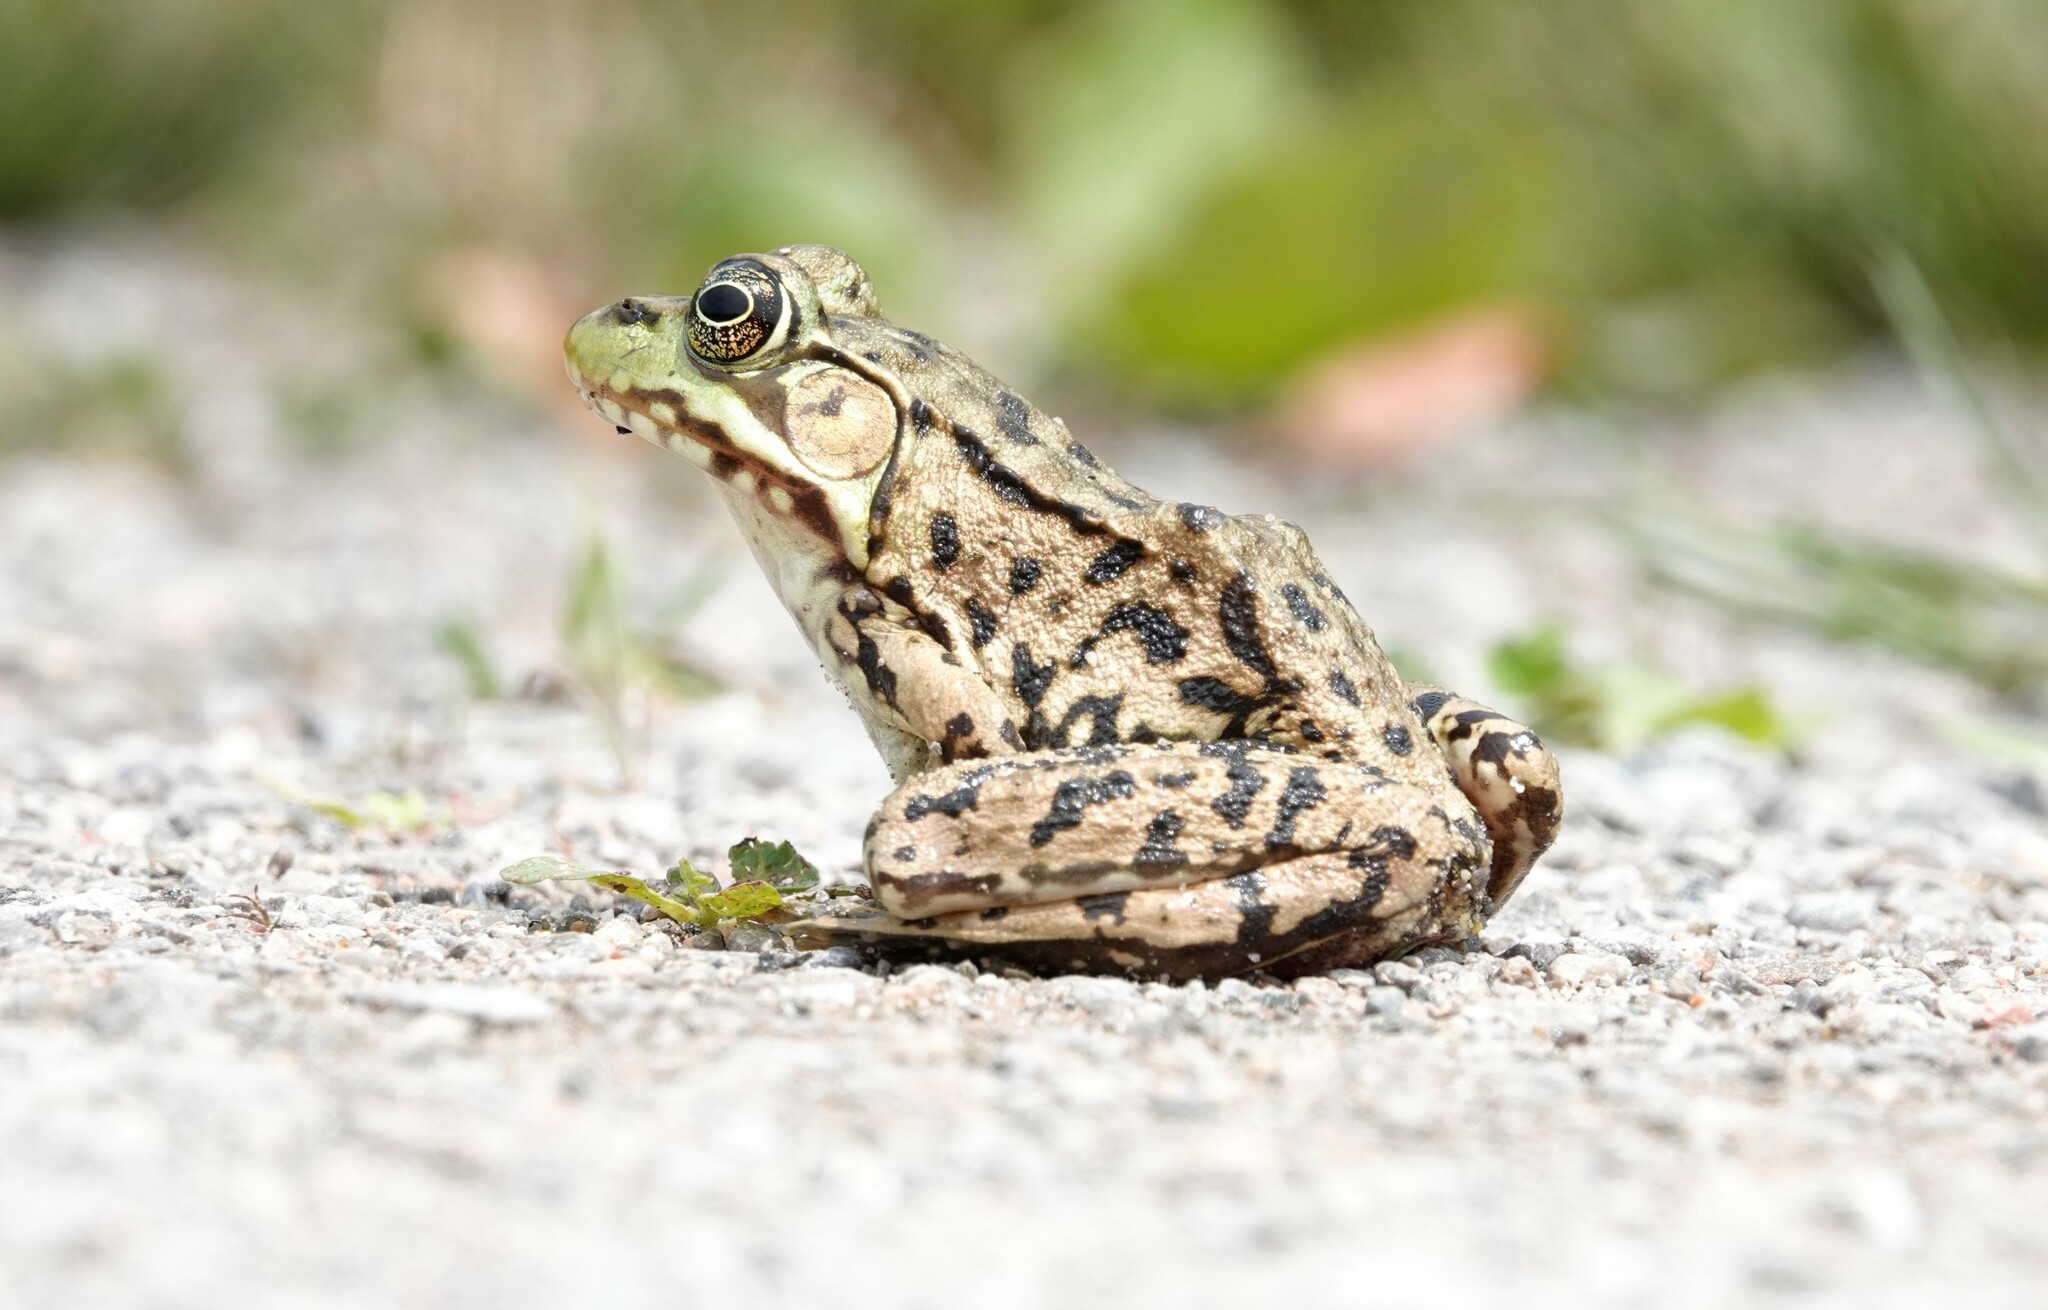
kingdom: Animalia
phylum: Chordata
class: Amphibia
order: Anura
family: Ranidae
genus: Lithobates
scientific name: Lithobates clamitans
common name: Green frog
